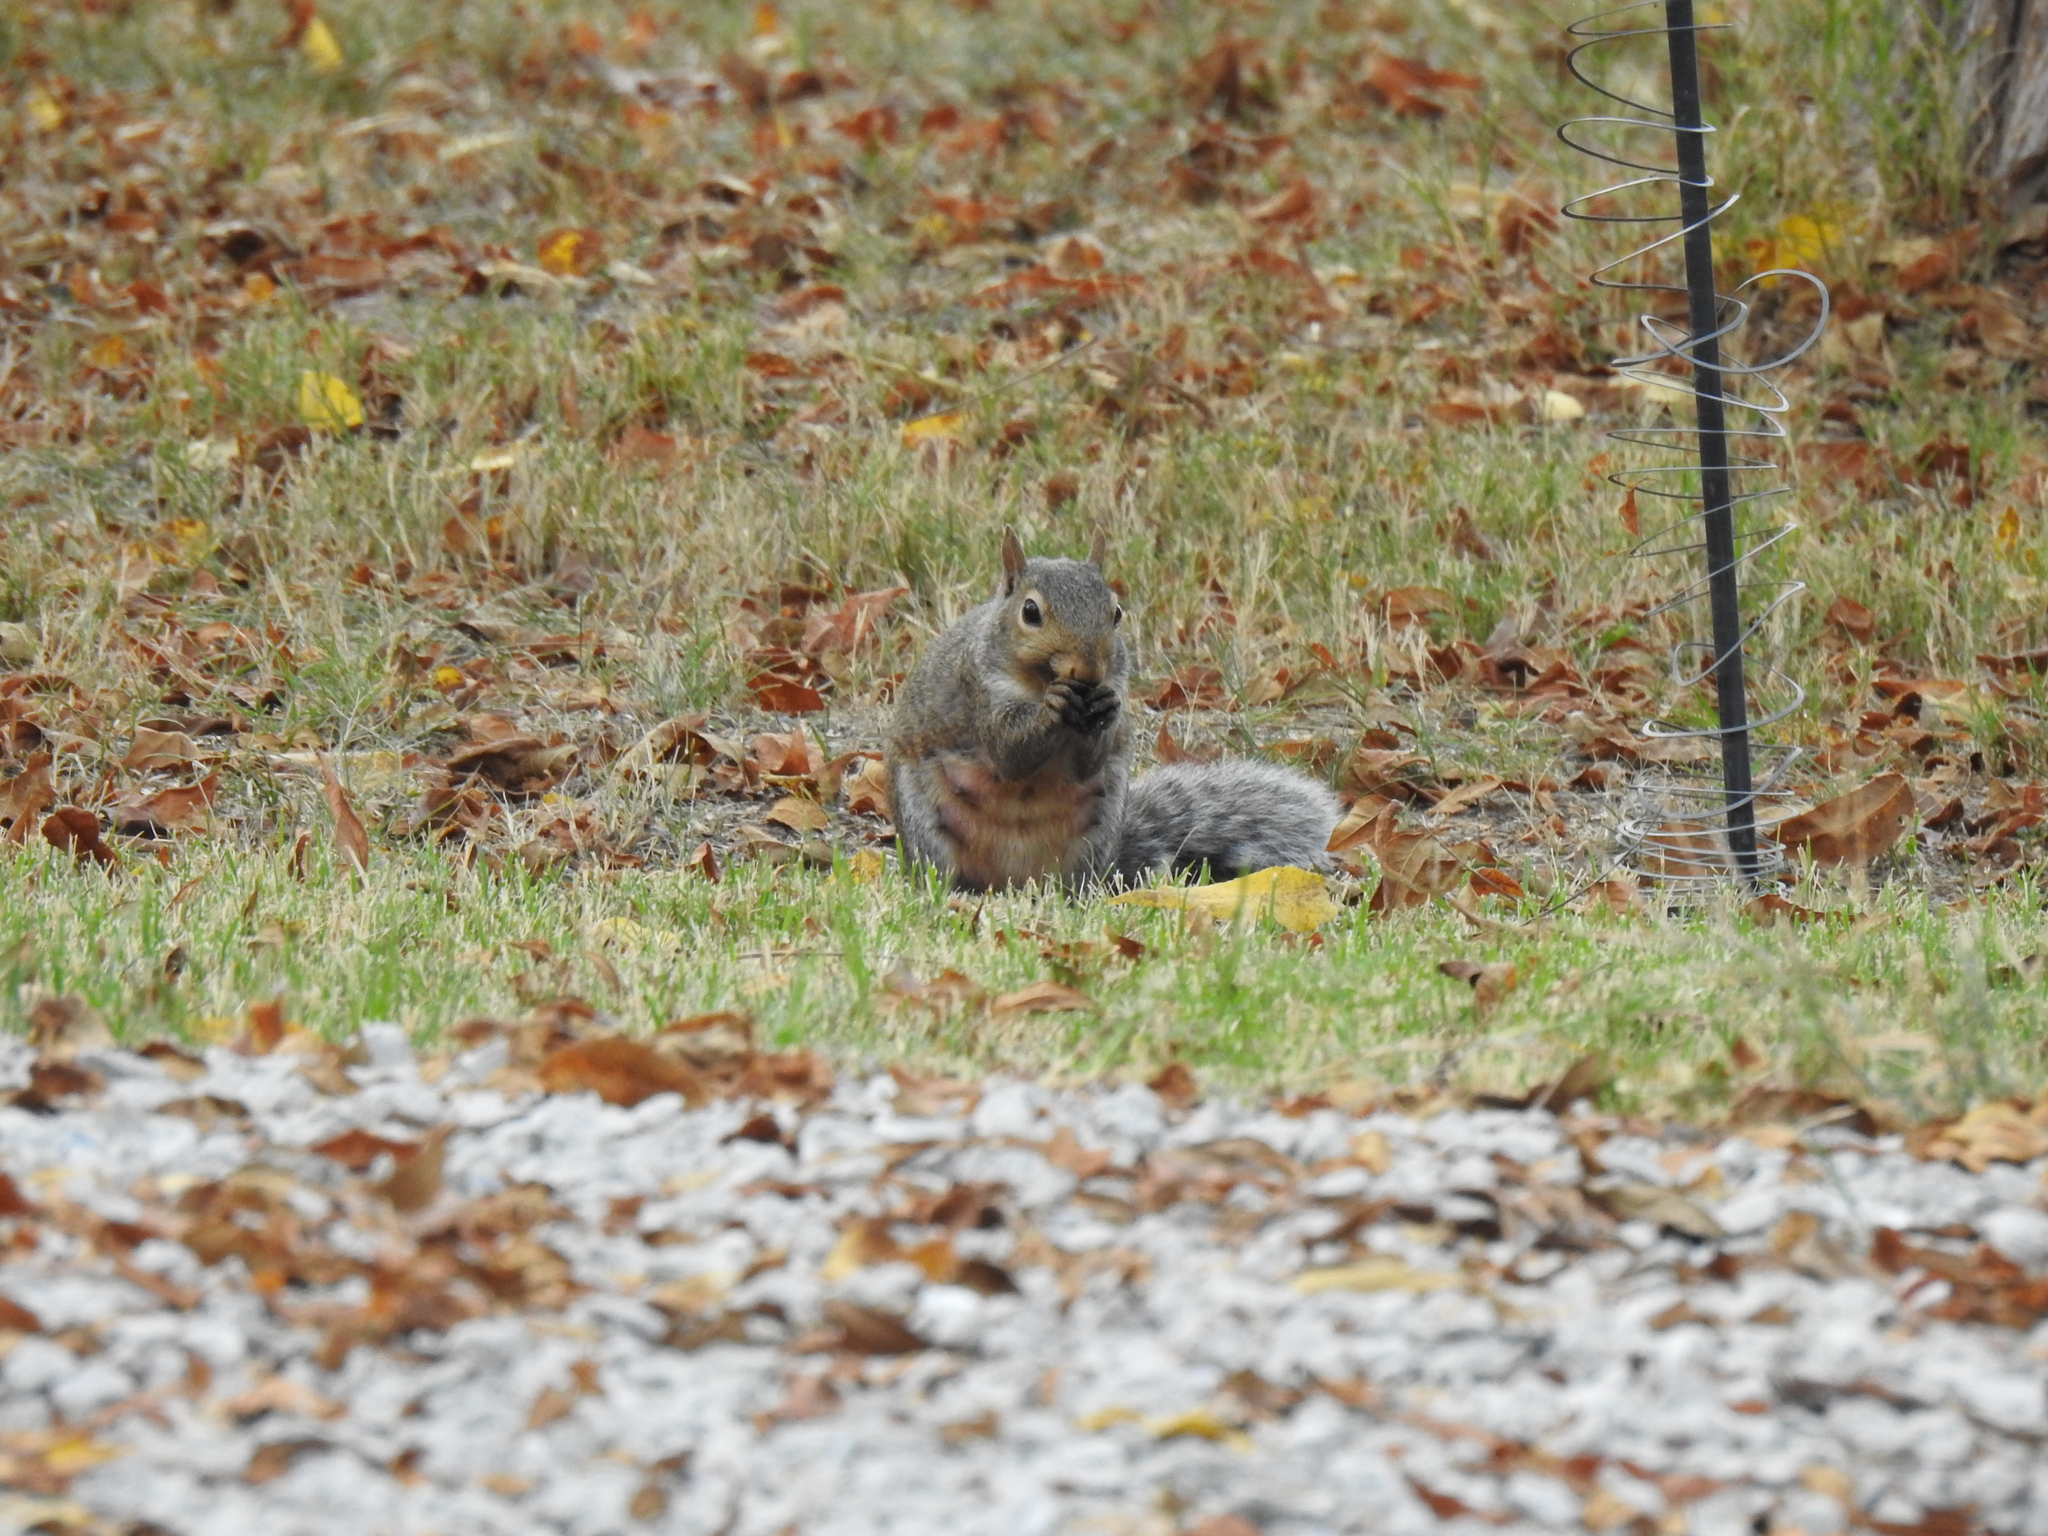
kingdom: Animalia
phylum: Chordata
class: Mammalia
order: Rodentia
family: Sciuridae
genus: Sciurus
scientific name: Sciurus carolinensis
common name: Eastern gray squirrel
